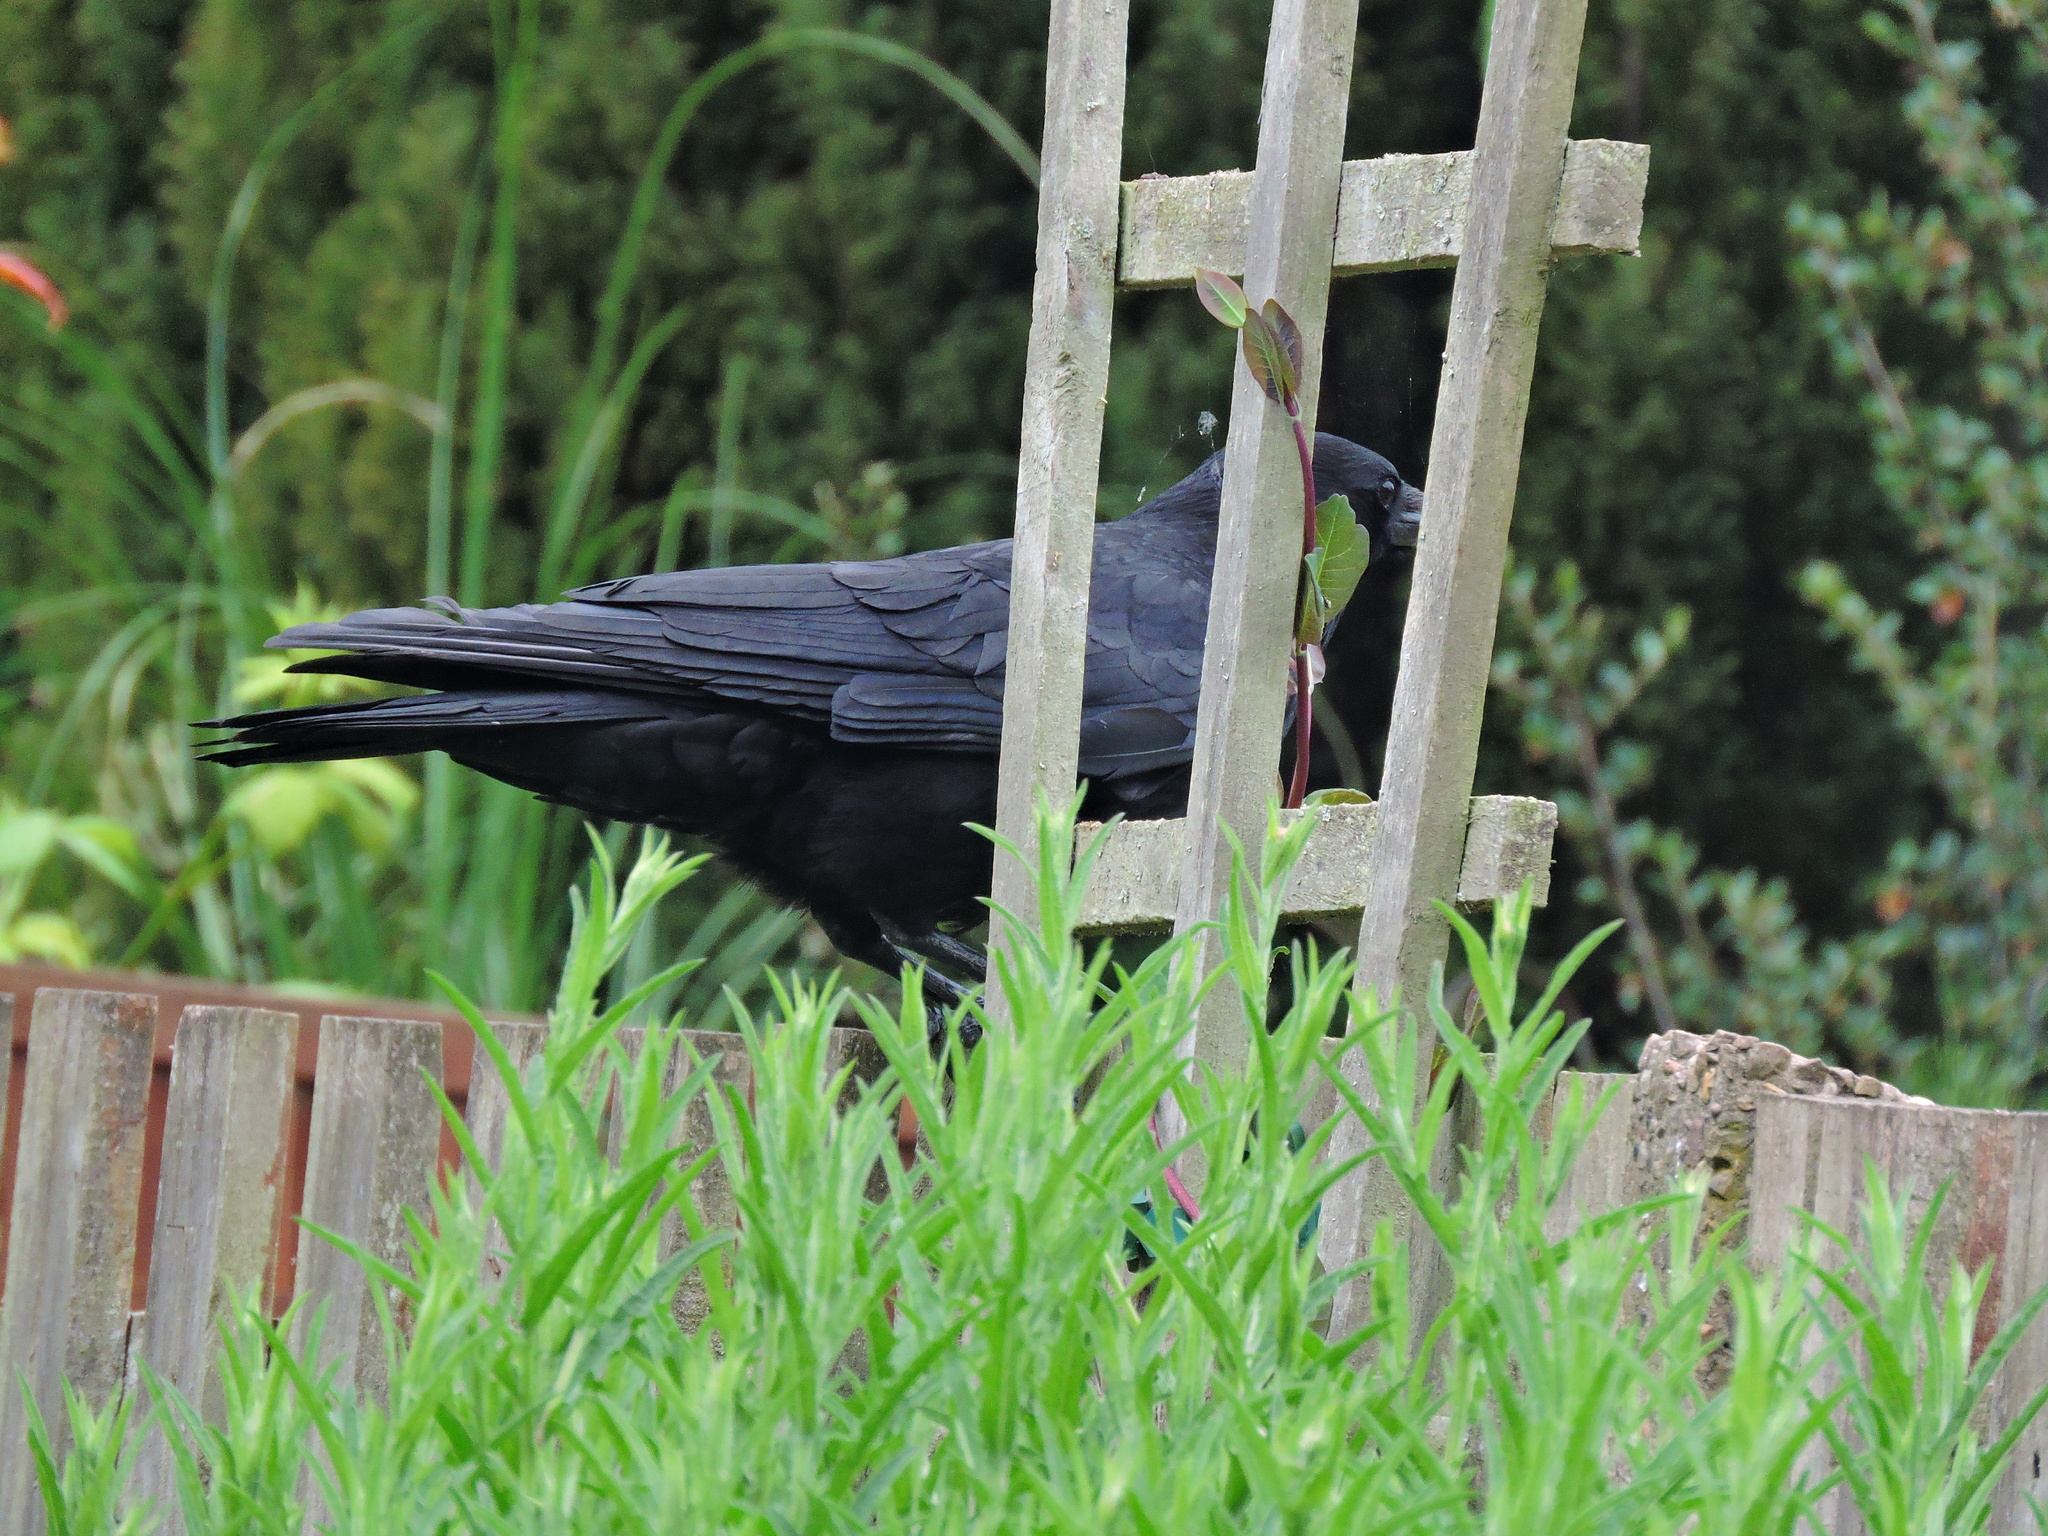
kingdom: Animalia
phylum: Chordata
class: Aves
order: Passeriformes
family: Corvidae
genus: Corvus
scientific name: Corvus corone
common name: Carrion crow
